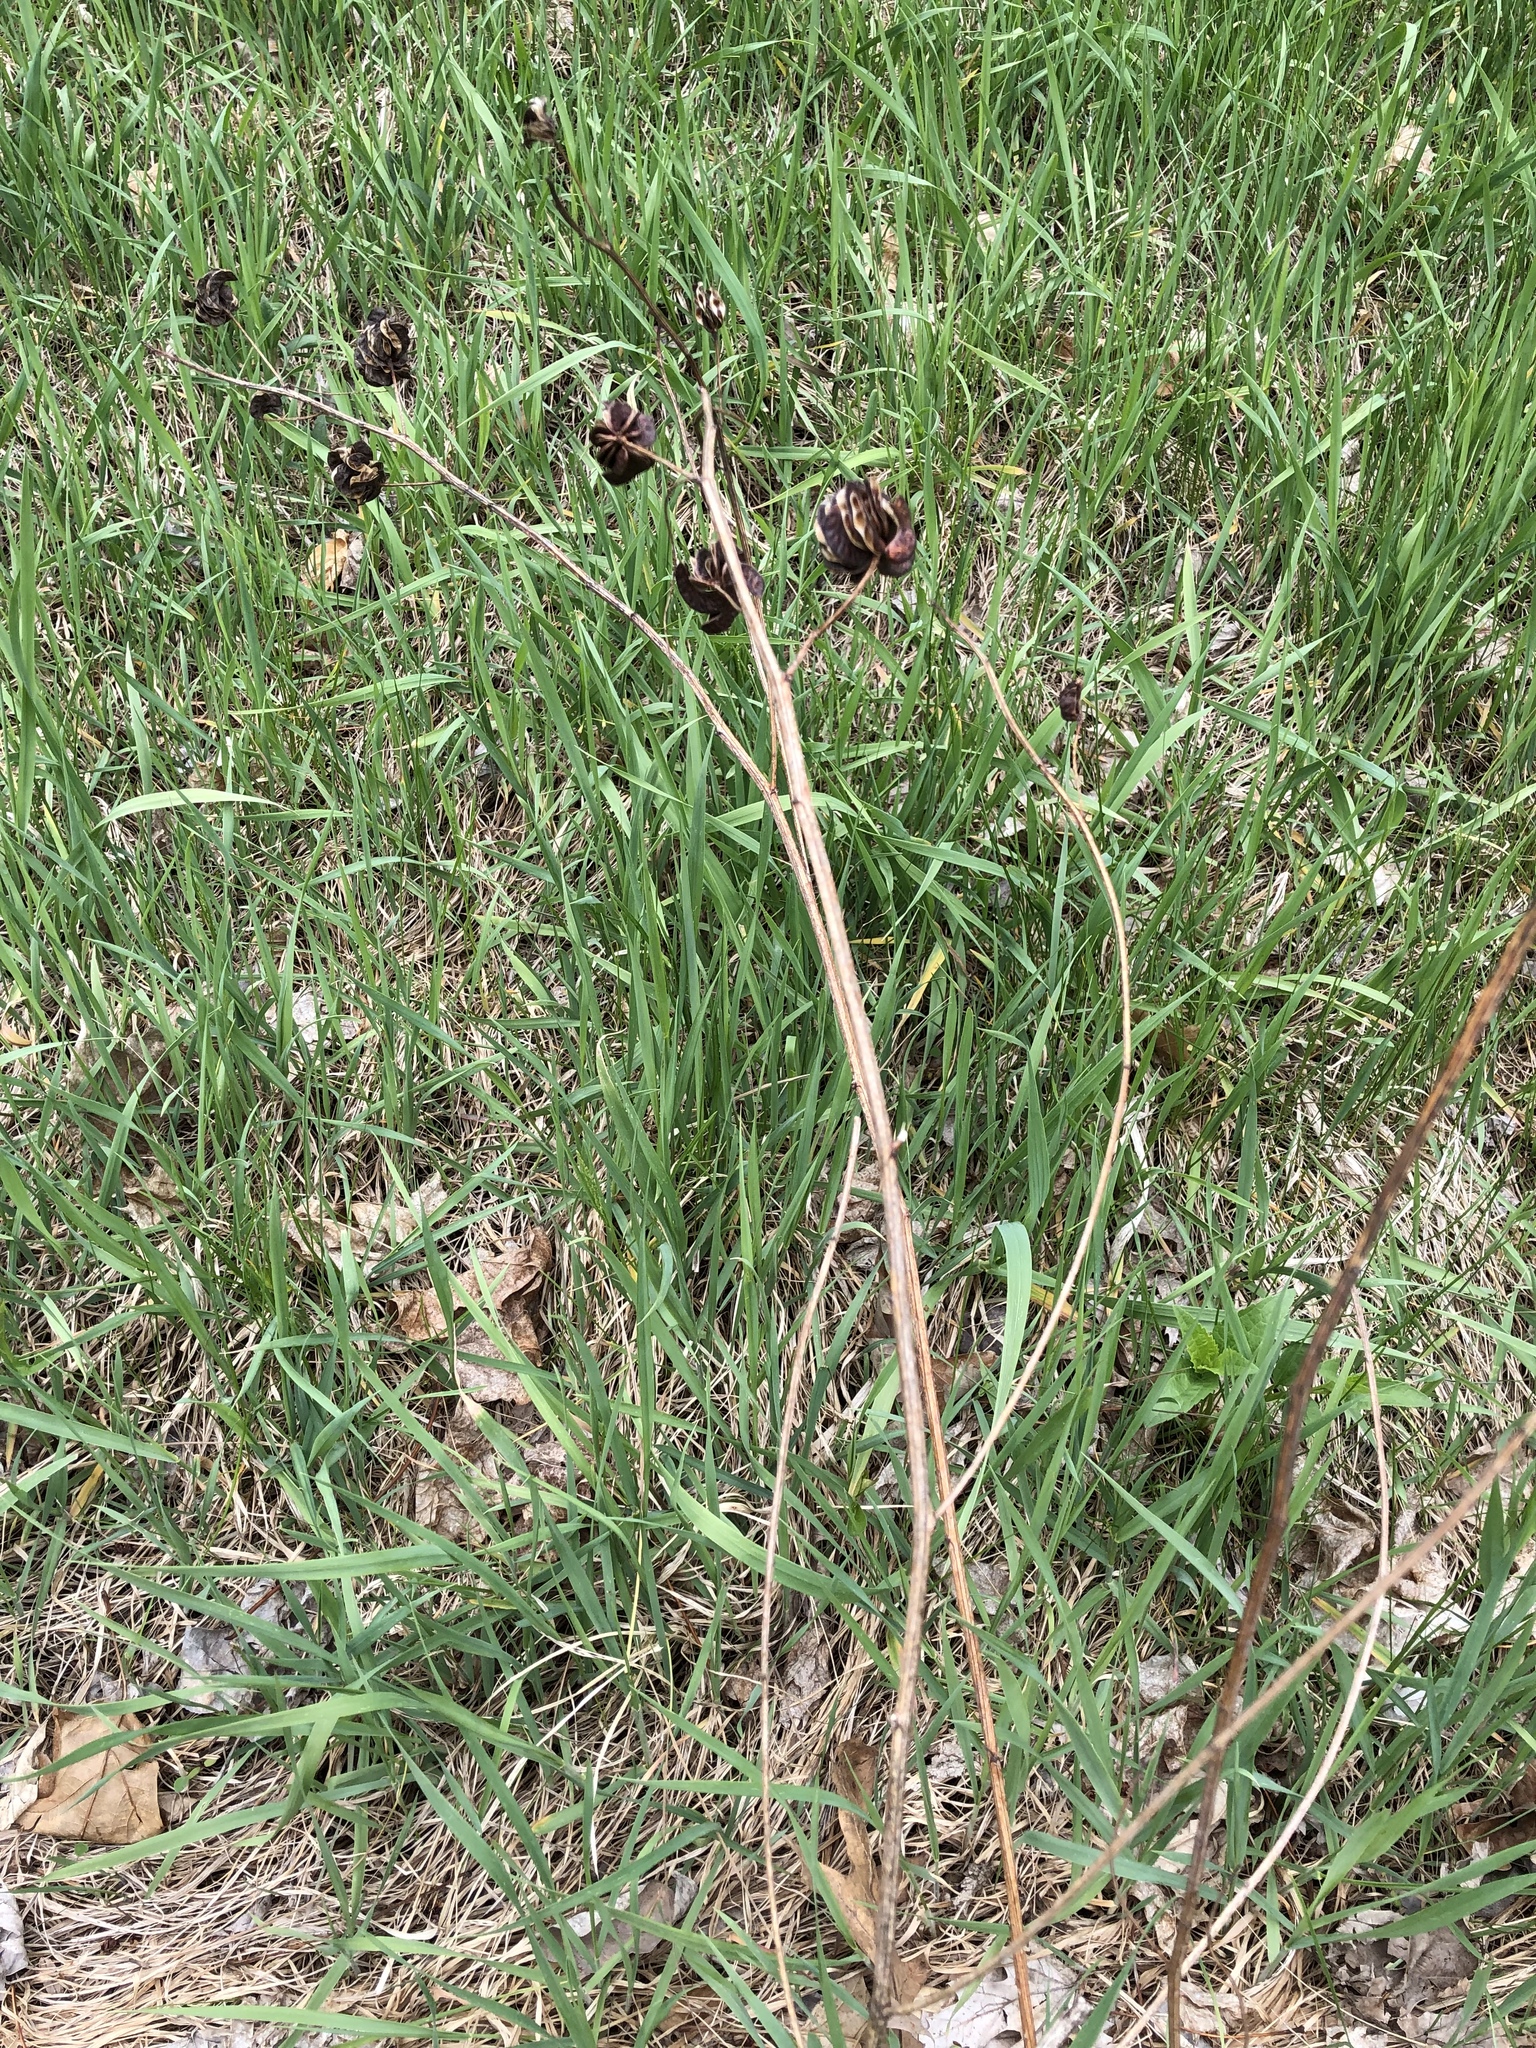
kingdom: Plantae
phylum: Tracheophyta
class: Magnoliopsida
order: Fabales
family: Fabaceae
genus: Desmanthus
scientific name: Desmanthus illinoensis
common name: Illinois bundle-flower
